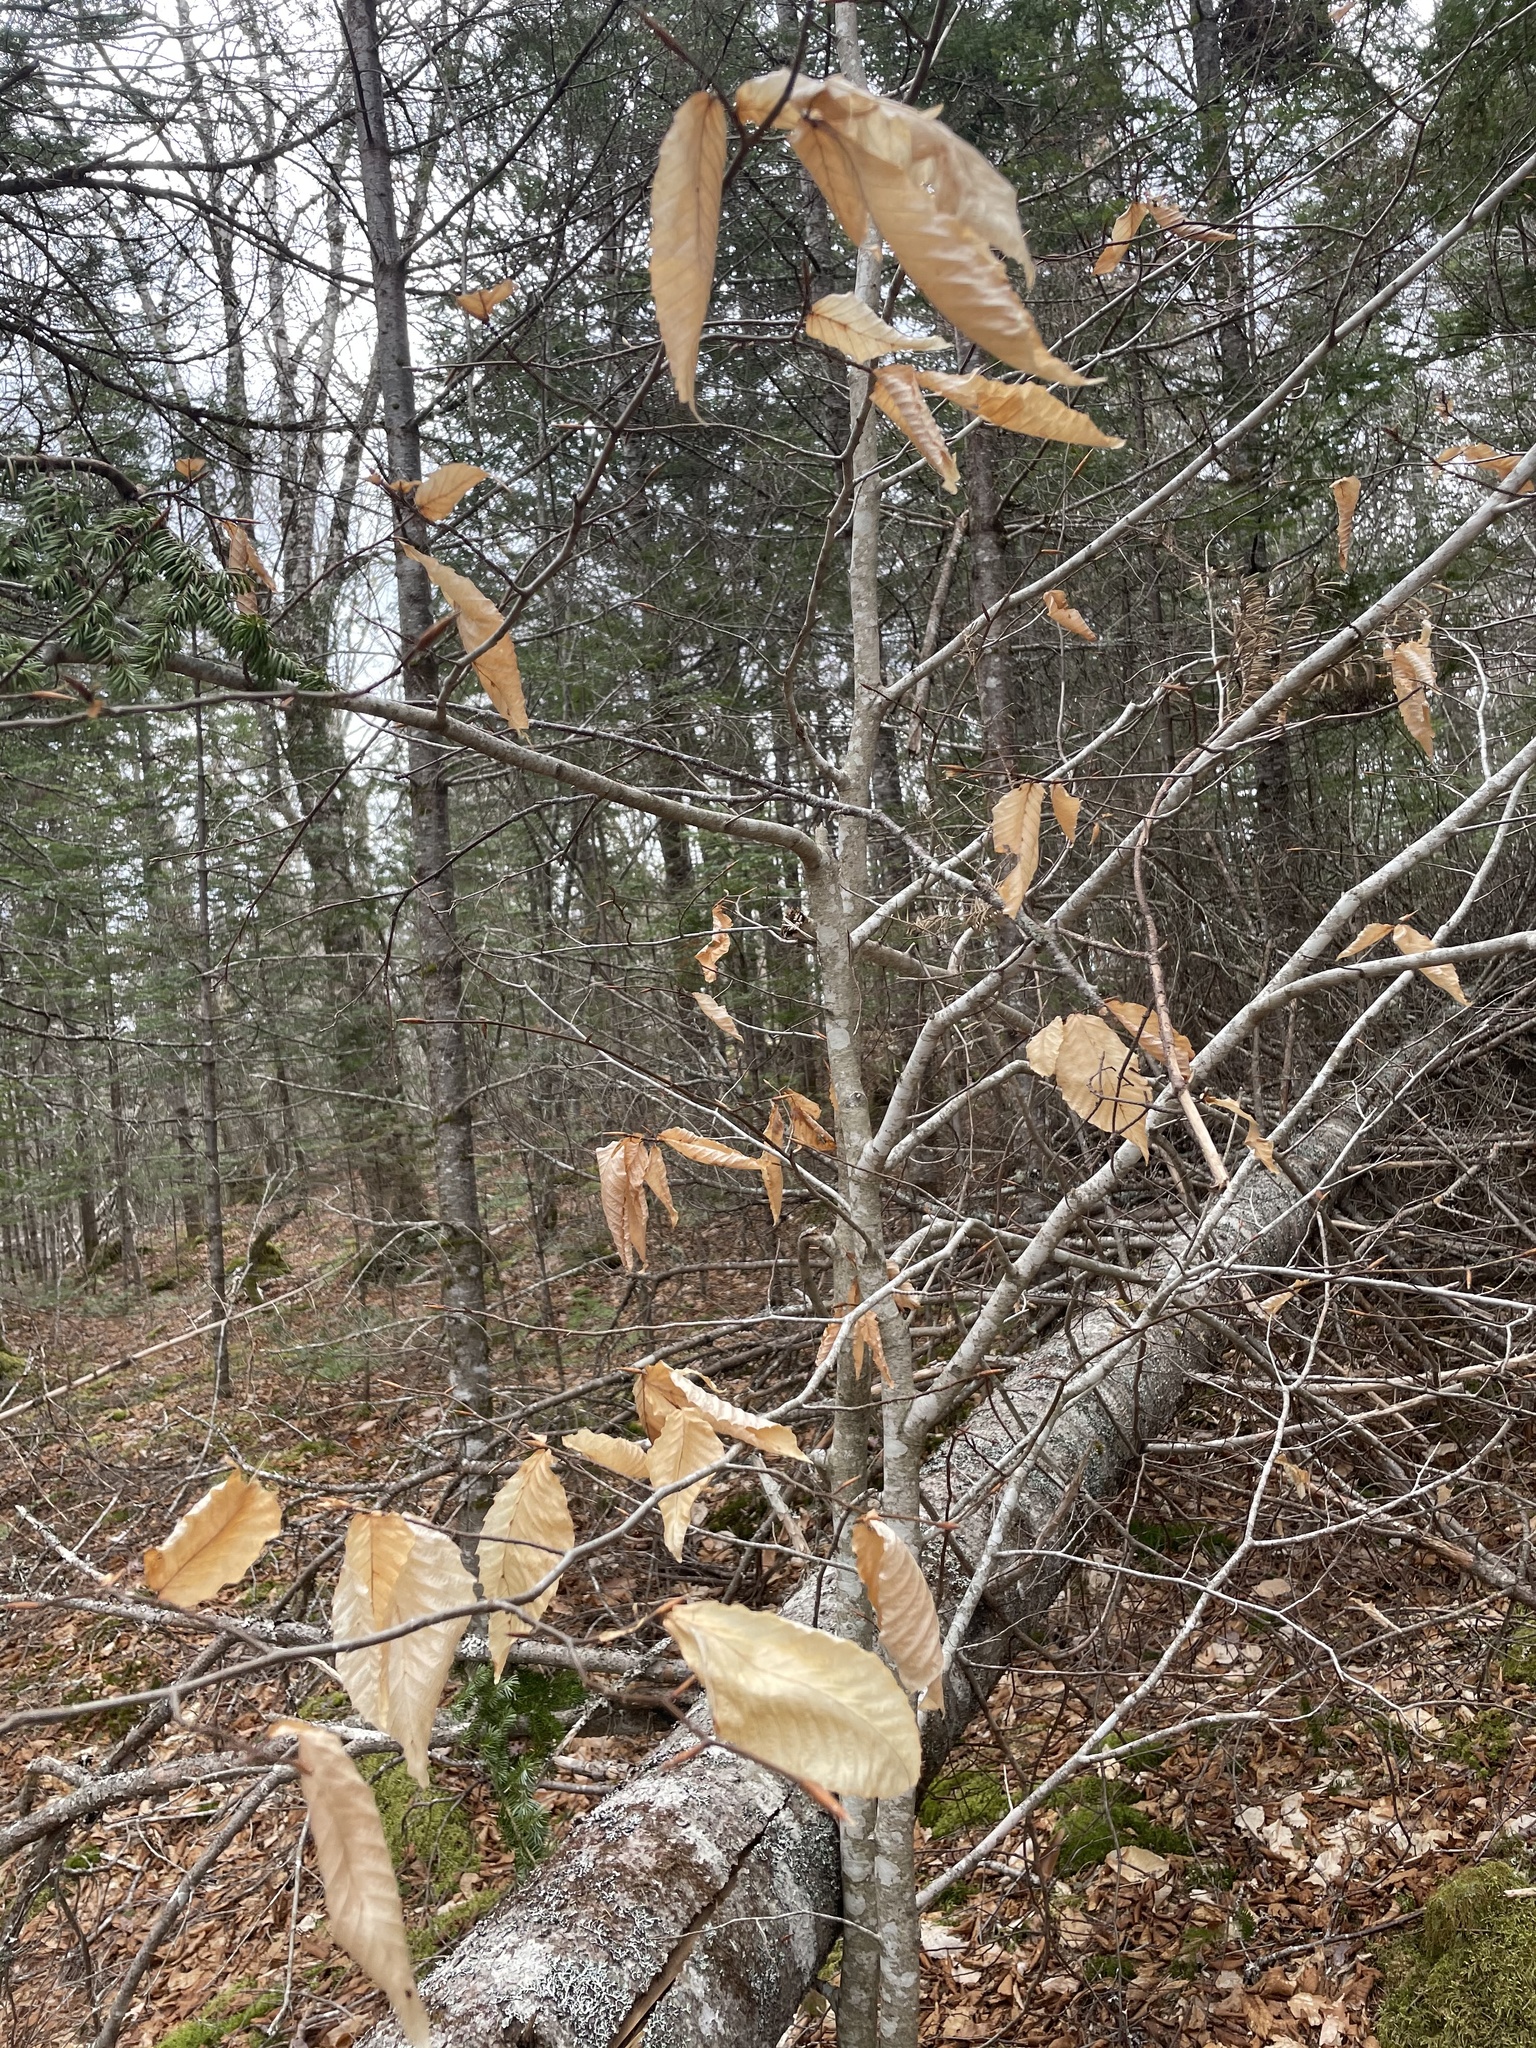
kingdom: Plantae
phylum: Tracheophyta
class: Magnoliopsida
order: Fagales
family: Fagaceae
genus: Fagus
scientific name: Fagus grandifolia
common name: American beech
